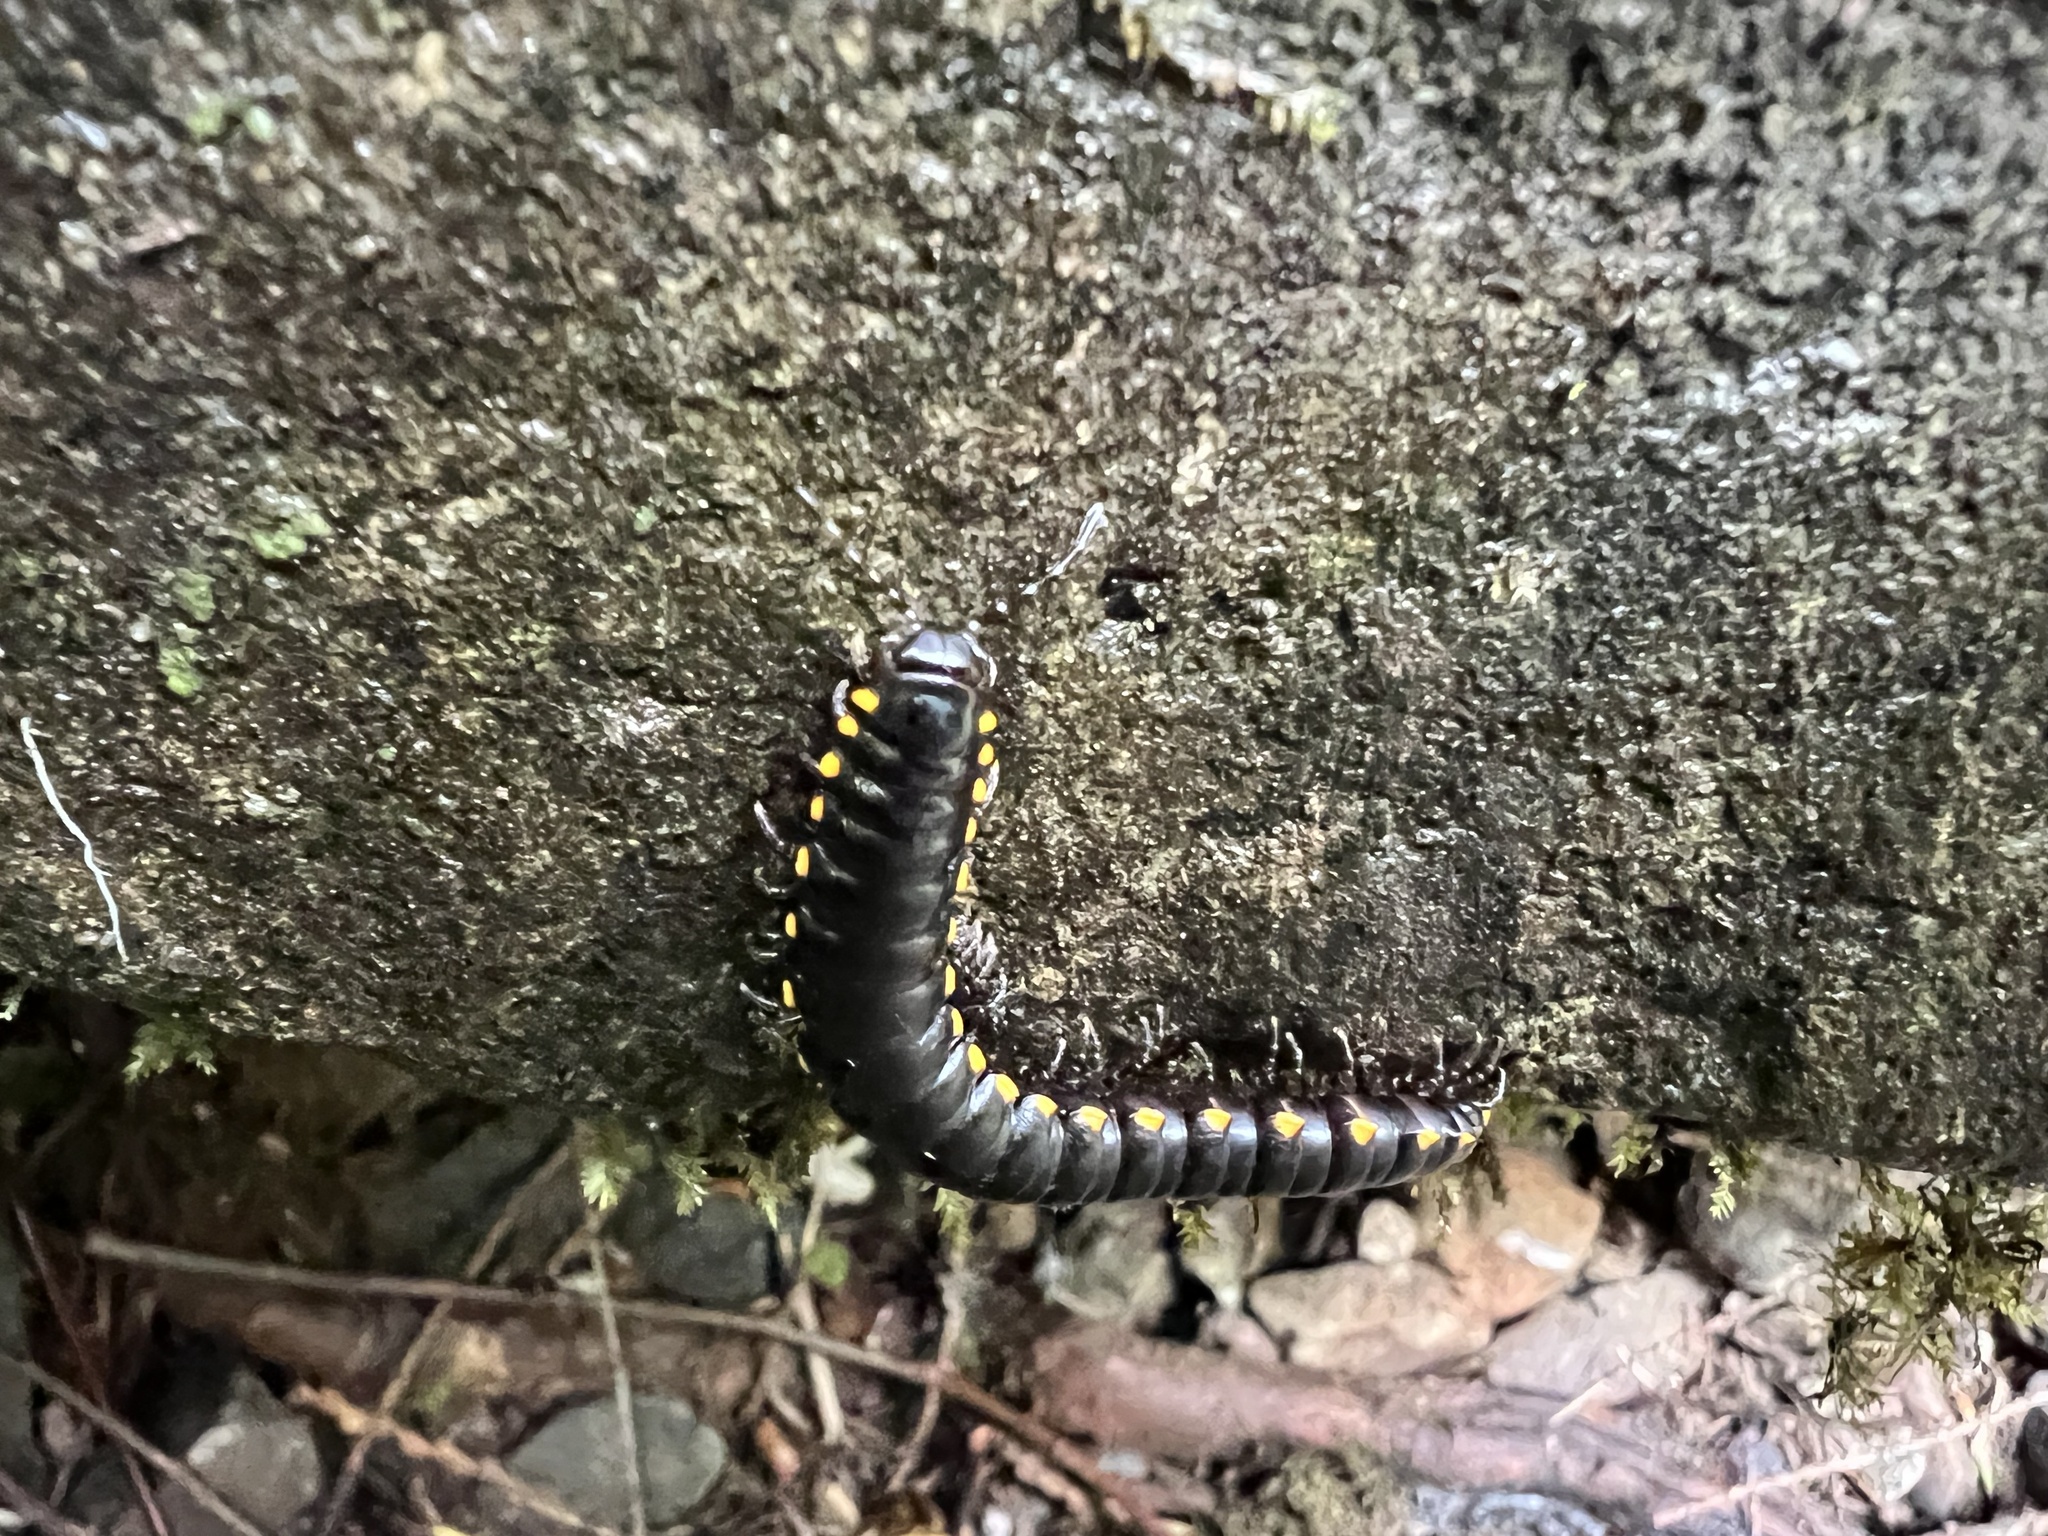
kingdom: Animalia
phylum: Arthropoda
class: Diplopoda
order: Polydesmida
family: Xystodesmidae
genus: Harpaphe
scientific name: Harpaphe haydeniana
